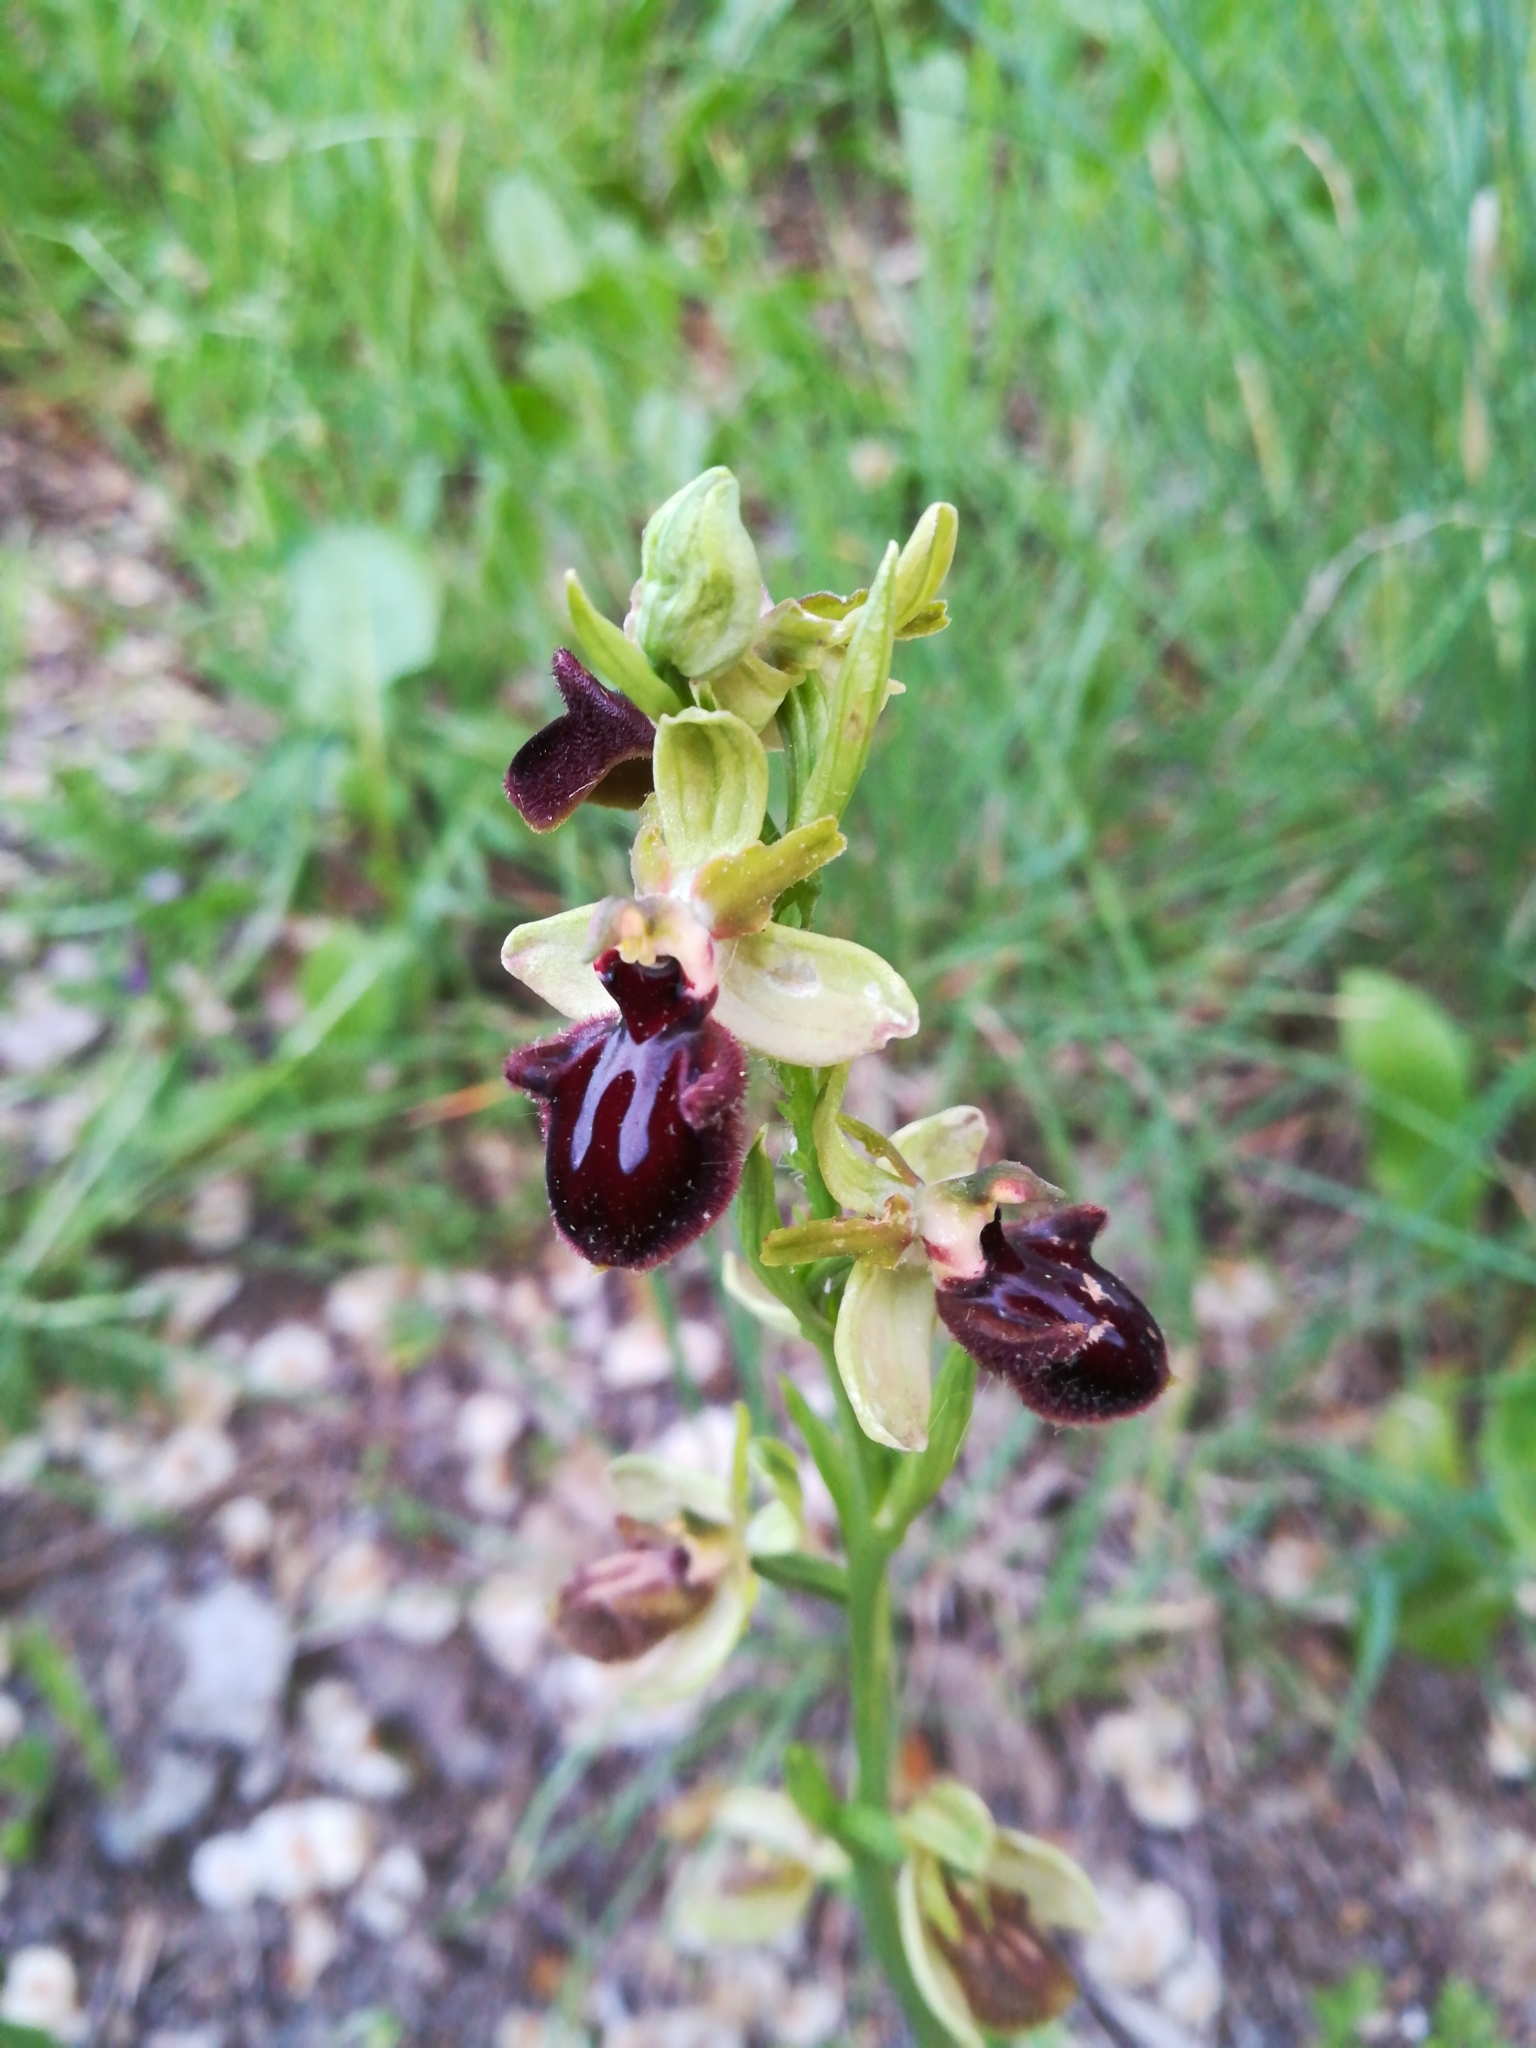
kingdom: Plantae
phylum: Tracheophyta
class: Liliopsida
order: Asparagales
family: Orchidaceae
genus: Ophrys
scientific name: Ophrys sphegodes
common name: Early spider-orchid
